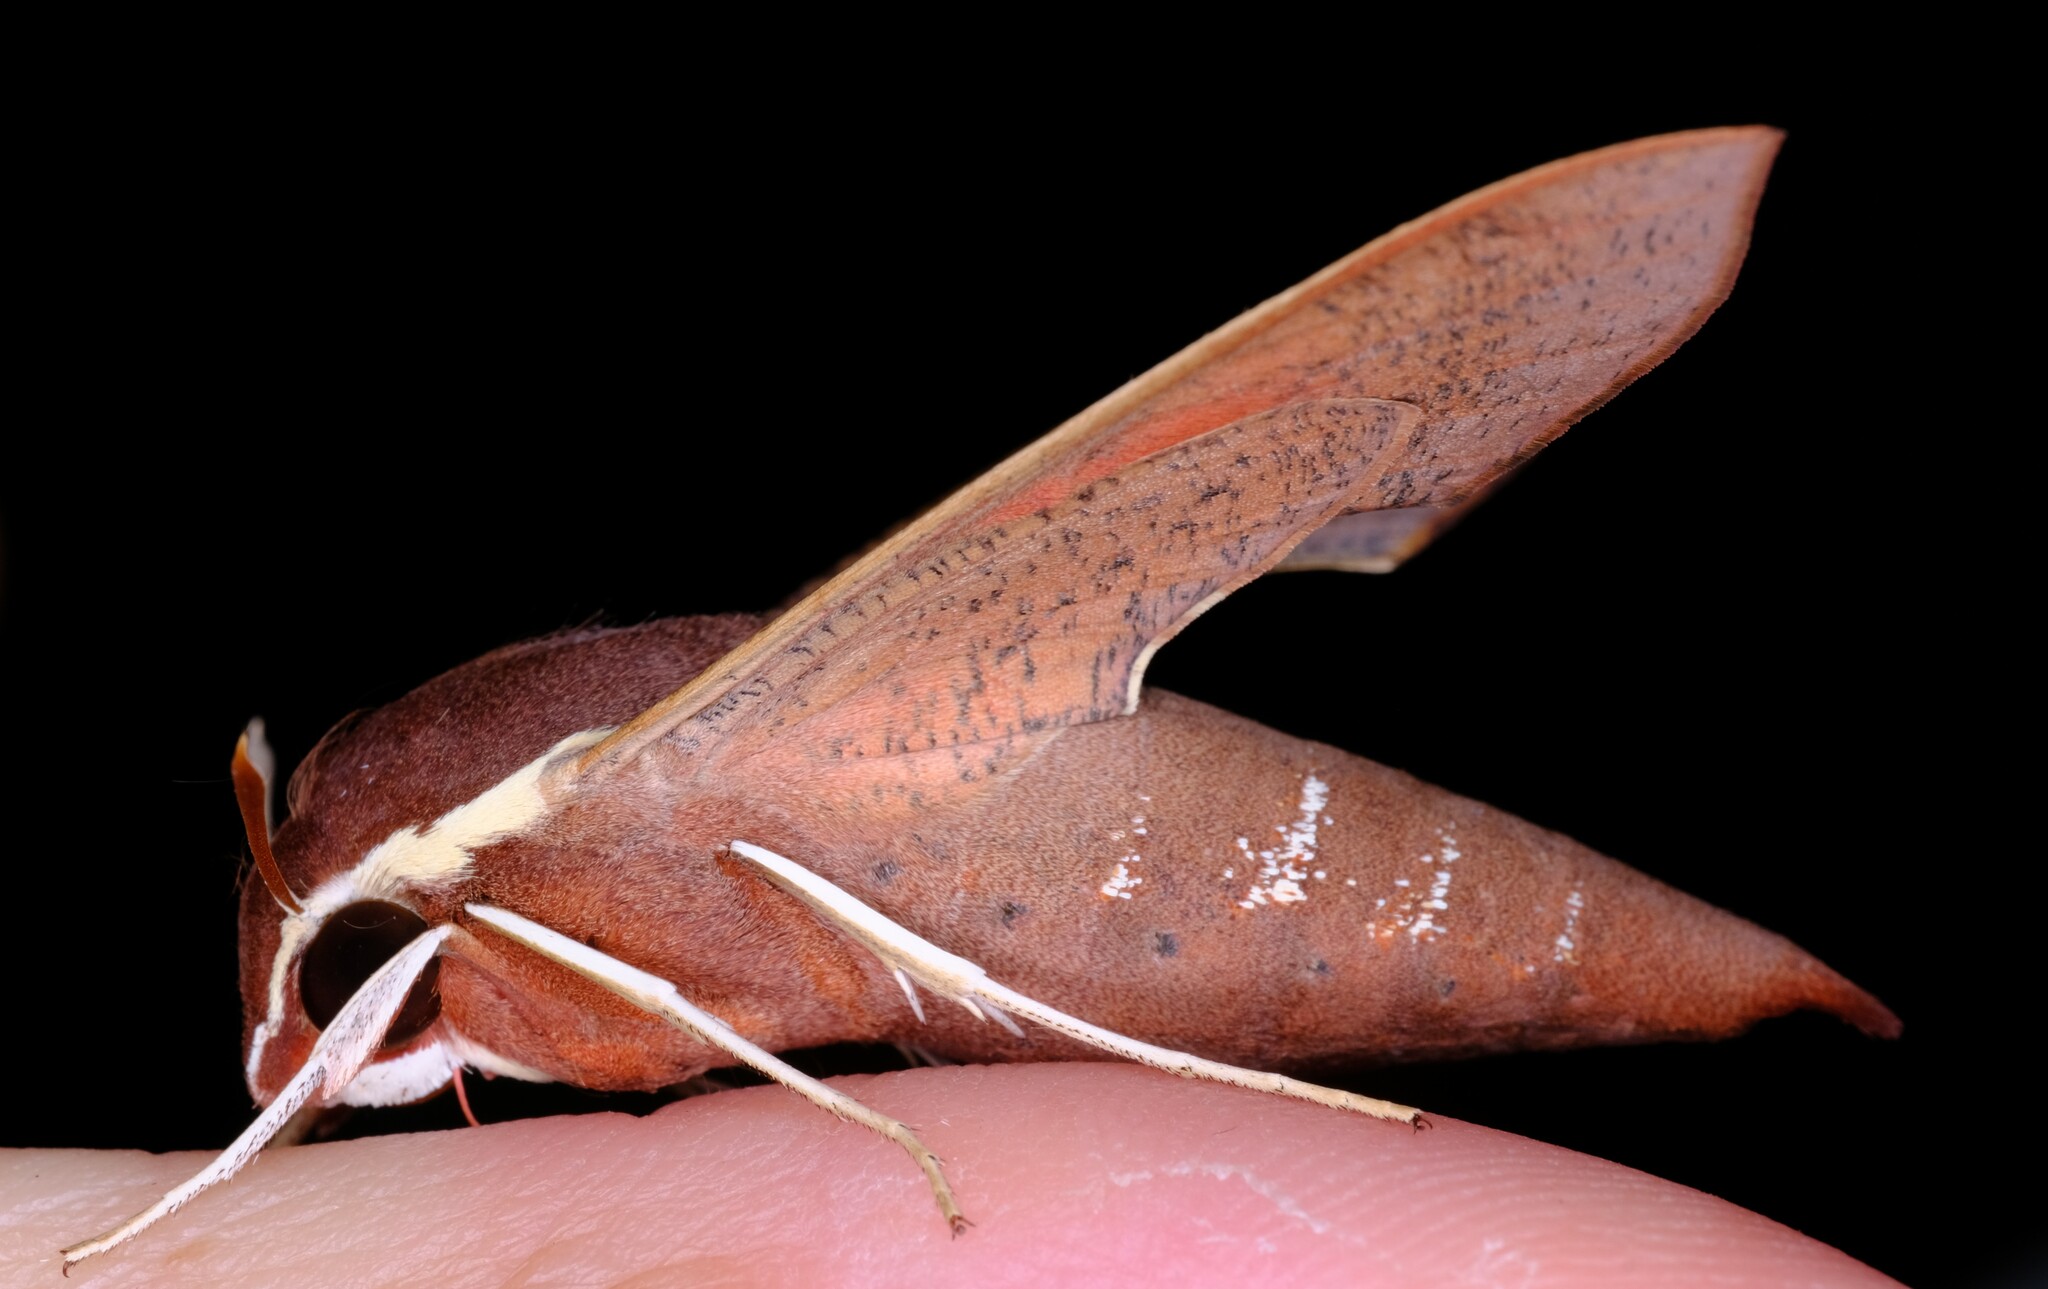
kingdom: Animalia
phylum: Arthropoda
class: Insecta
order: Lepidoptera
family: Sphingidae
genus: Hippotion
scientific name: Hippotion scrofa
